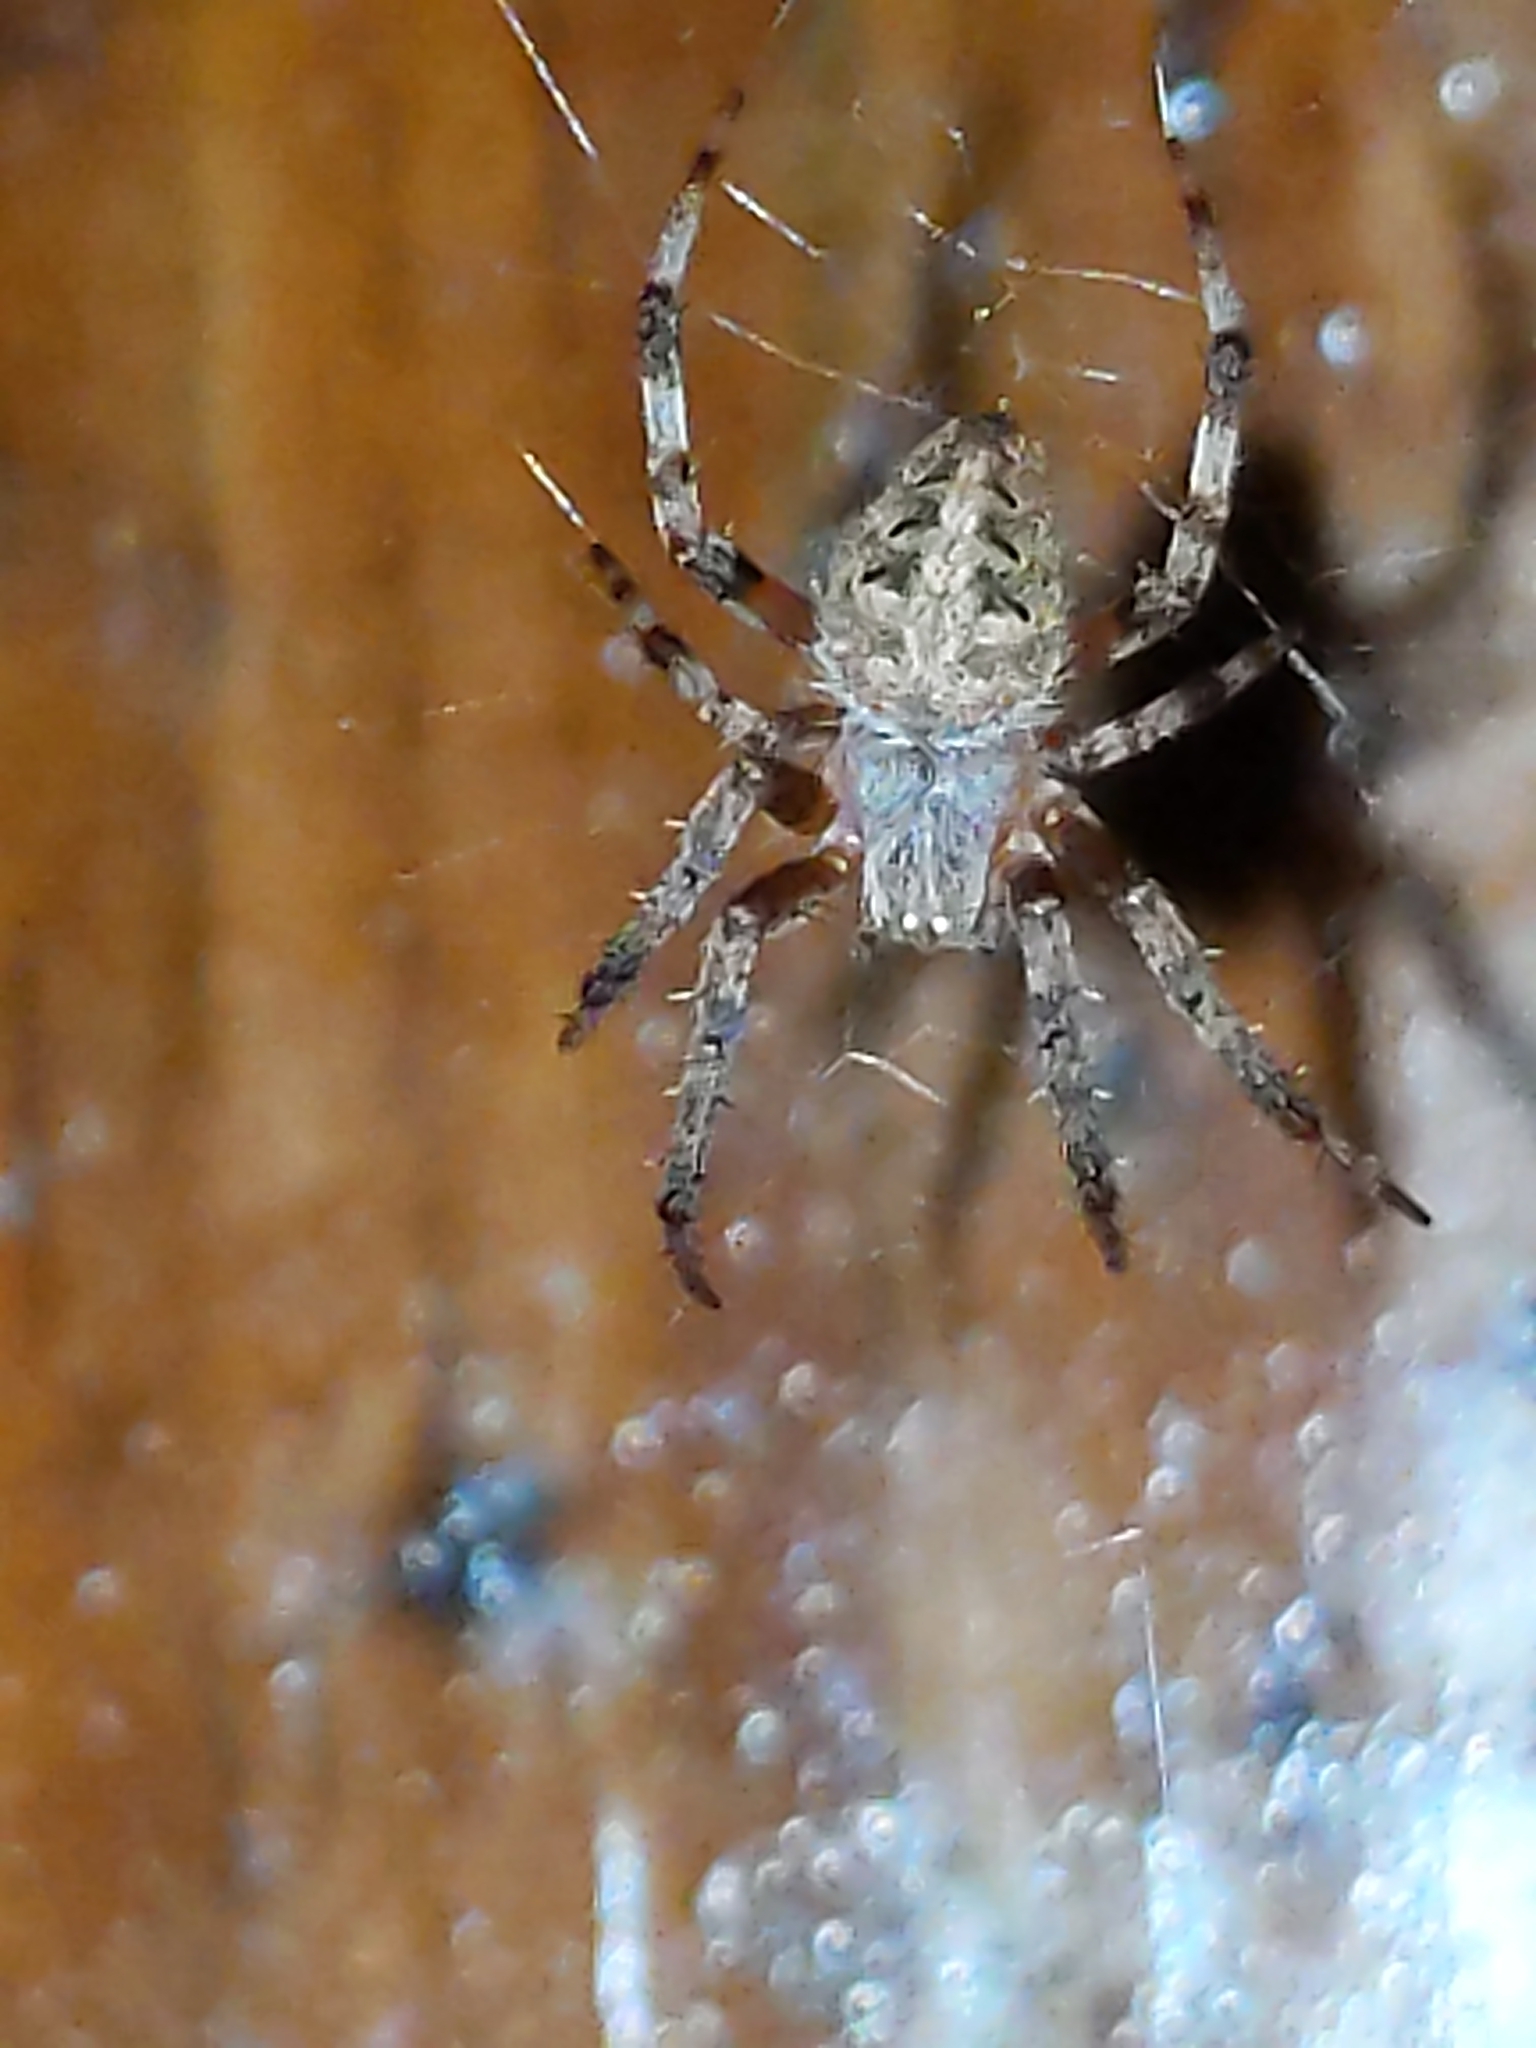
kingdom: Animalia
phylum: Arthropoda
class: Arachnida
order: Araneae
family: Araneidae
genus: Neoscona
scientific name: Neoscona crucifera
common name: Spotted orbweaver
